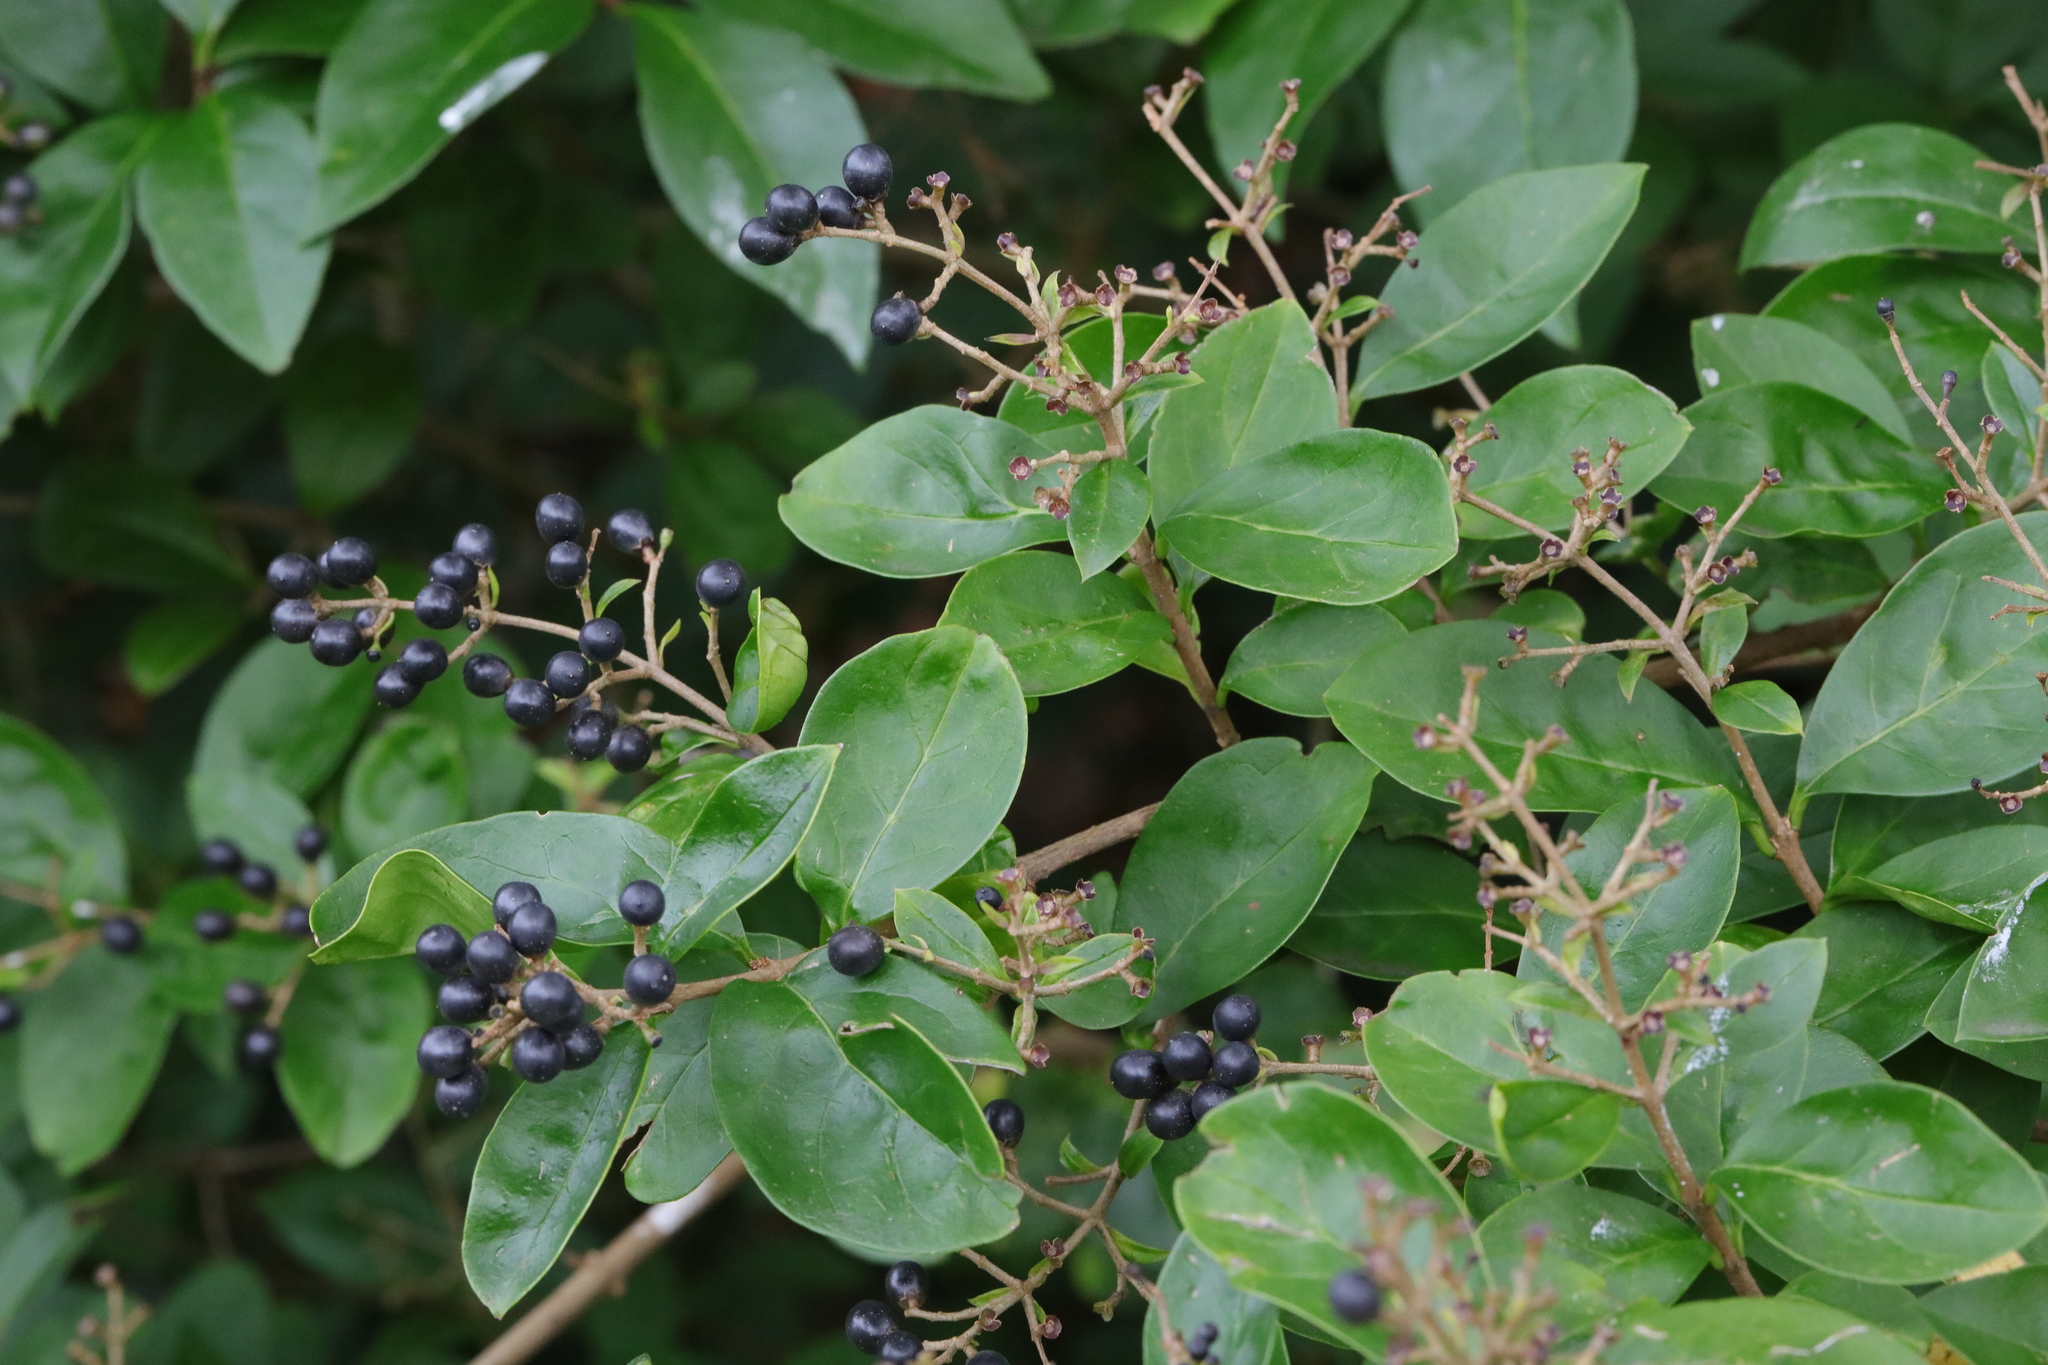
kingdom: Plantae
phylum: Tracheophyta
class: Magnoliopsida
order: Lamiales
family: Oleaceae
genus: Ligustrum
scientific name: Ligustrum ovalifolium
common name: California privet
